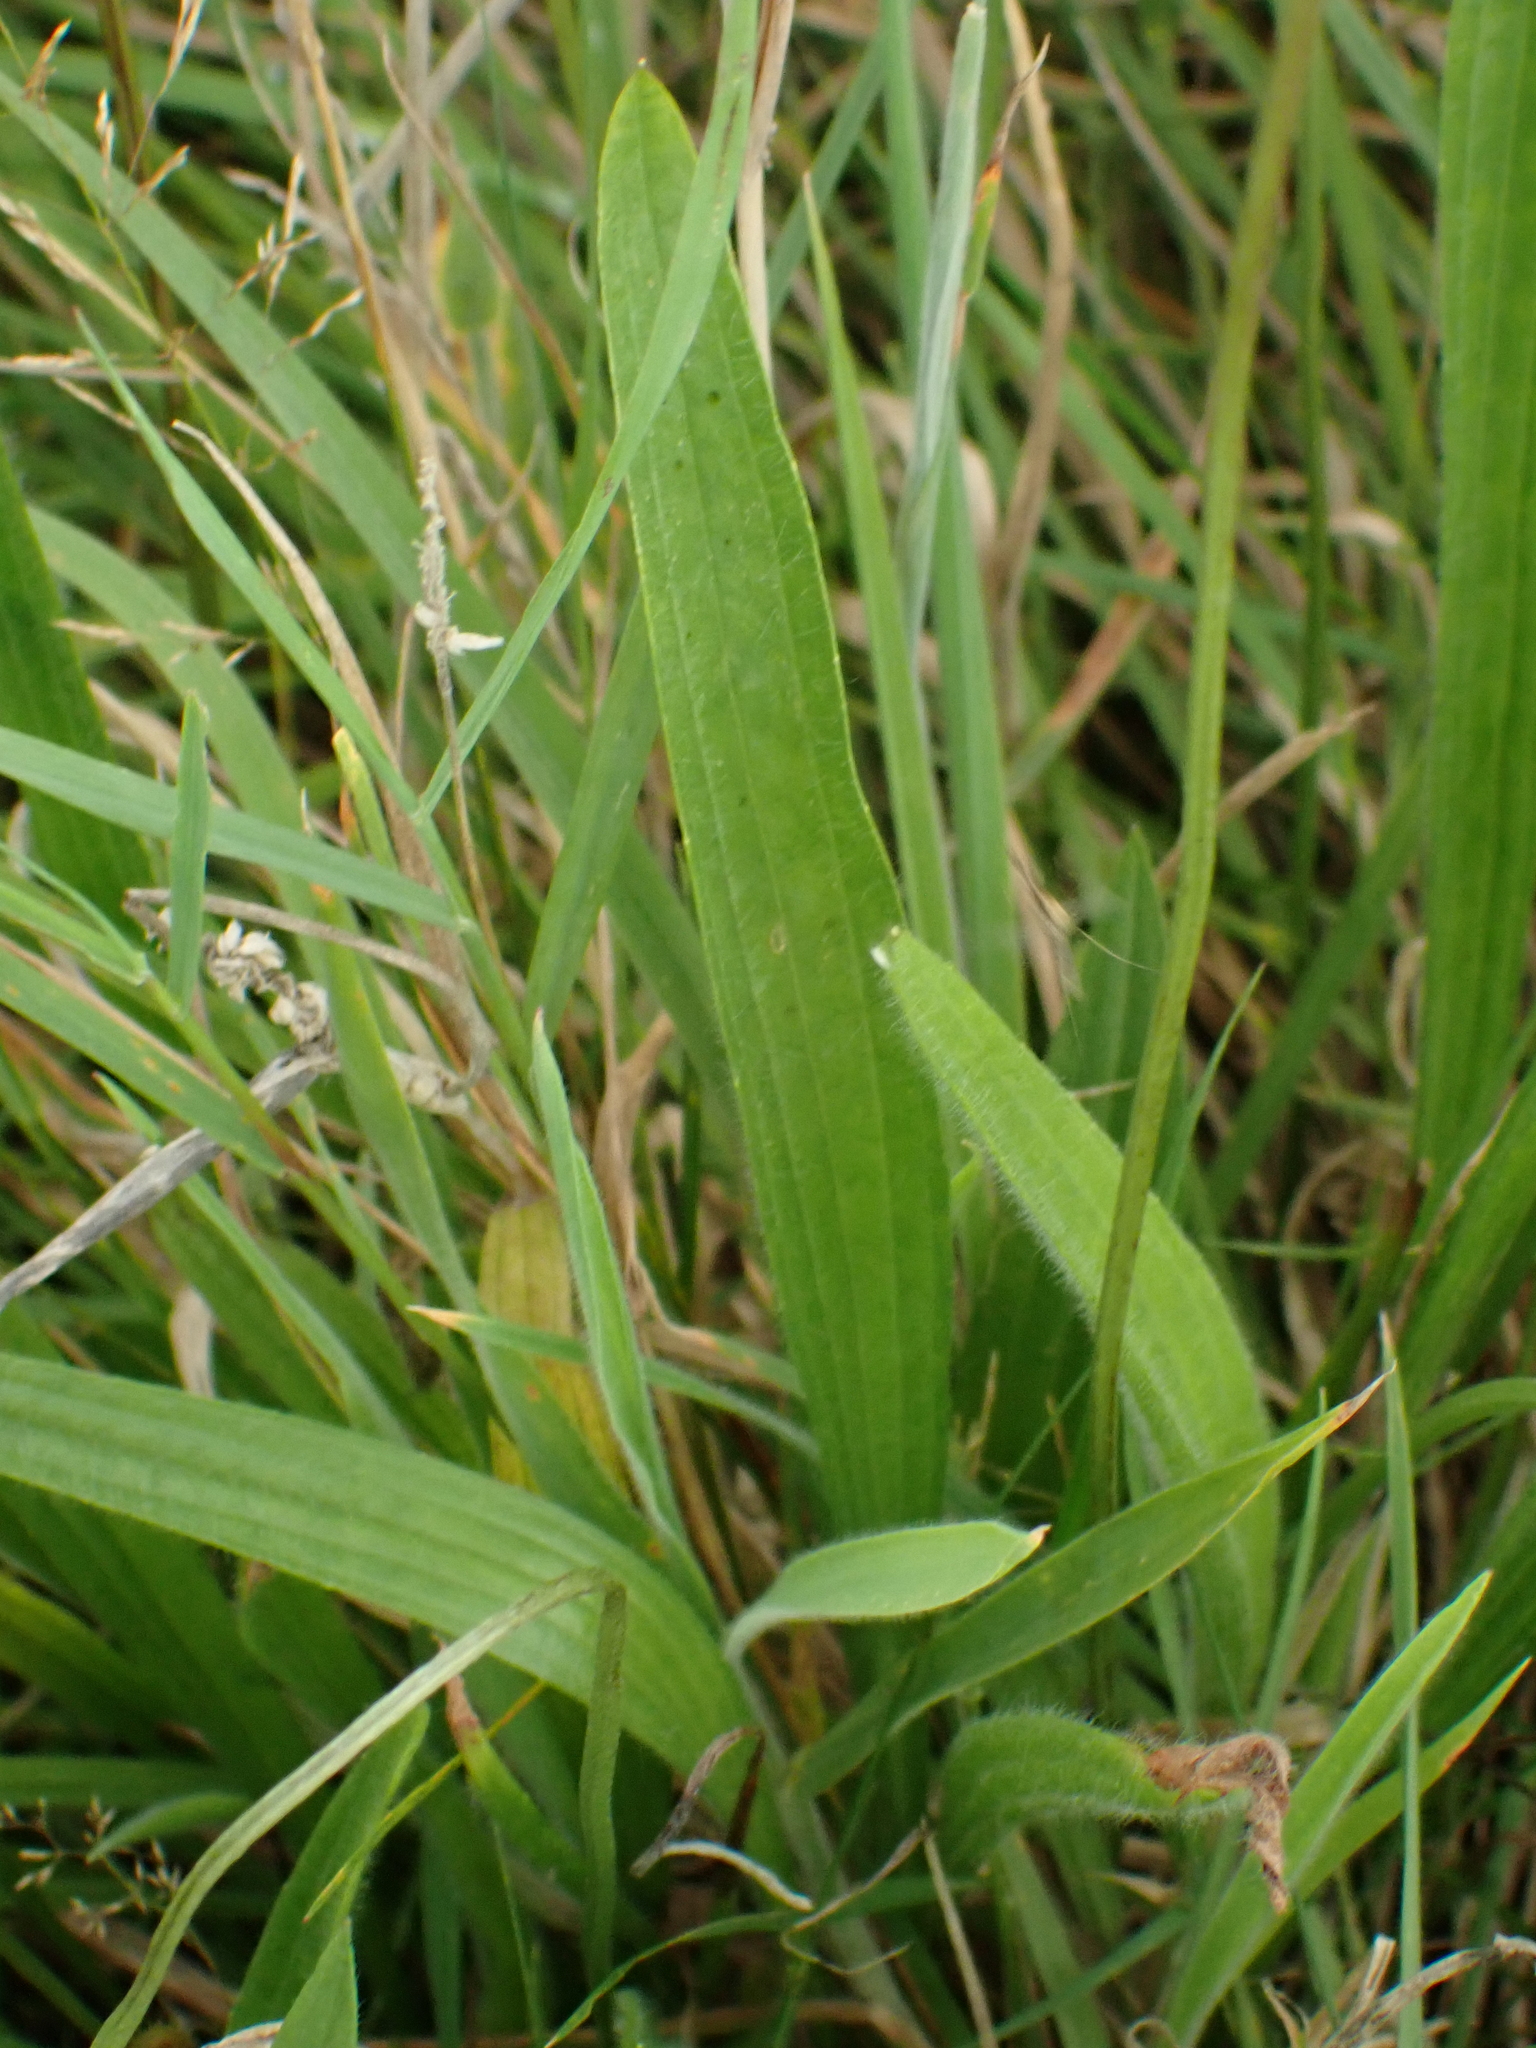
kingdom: Plantae
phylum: Tracheophyta
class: Magnoliopsida
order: Lamiales
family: Plantaginaceae
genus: Plantago
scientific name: Plantago lanceolata
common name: Ribwort plantain
